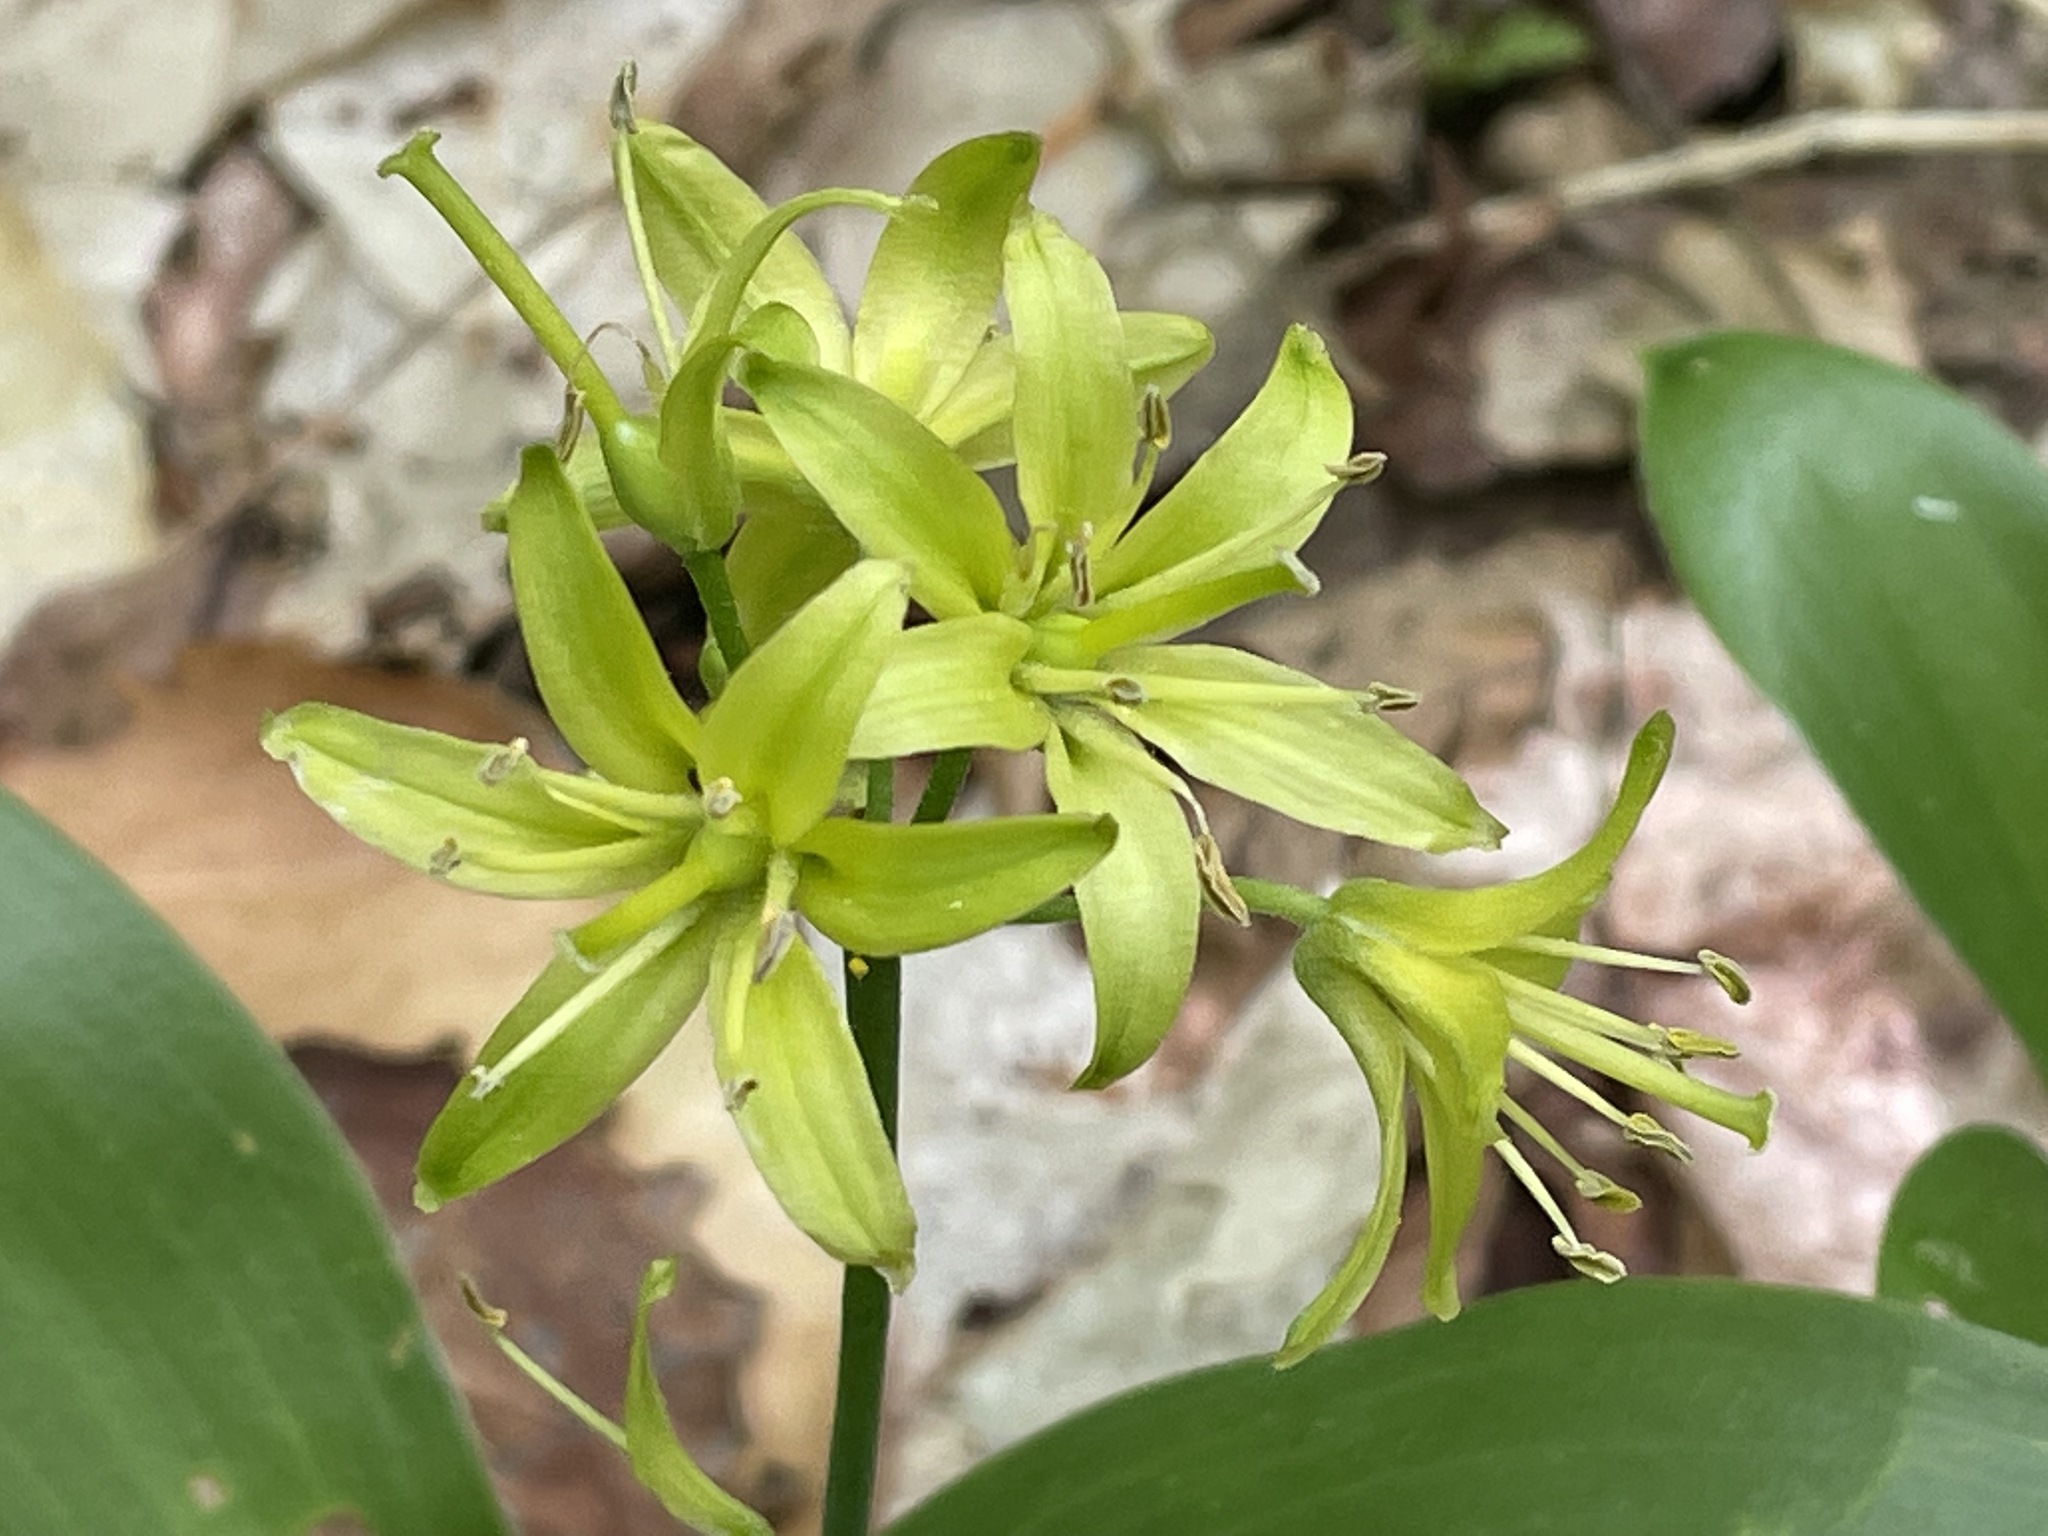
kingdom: Plantae
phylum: Tracheophyta
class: Liliopsida
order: Liliales
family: Liliaceae
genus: Clintonia
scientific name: Clintonia borealis
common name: Yellow clintonia
